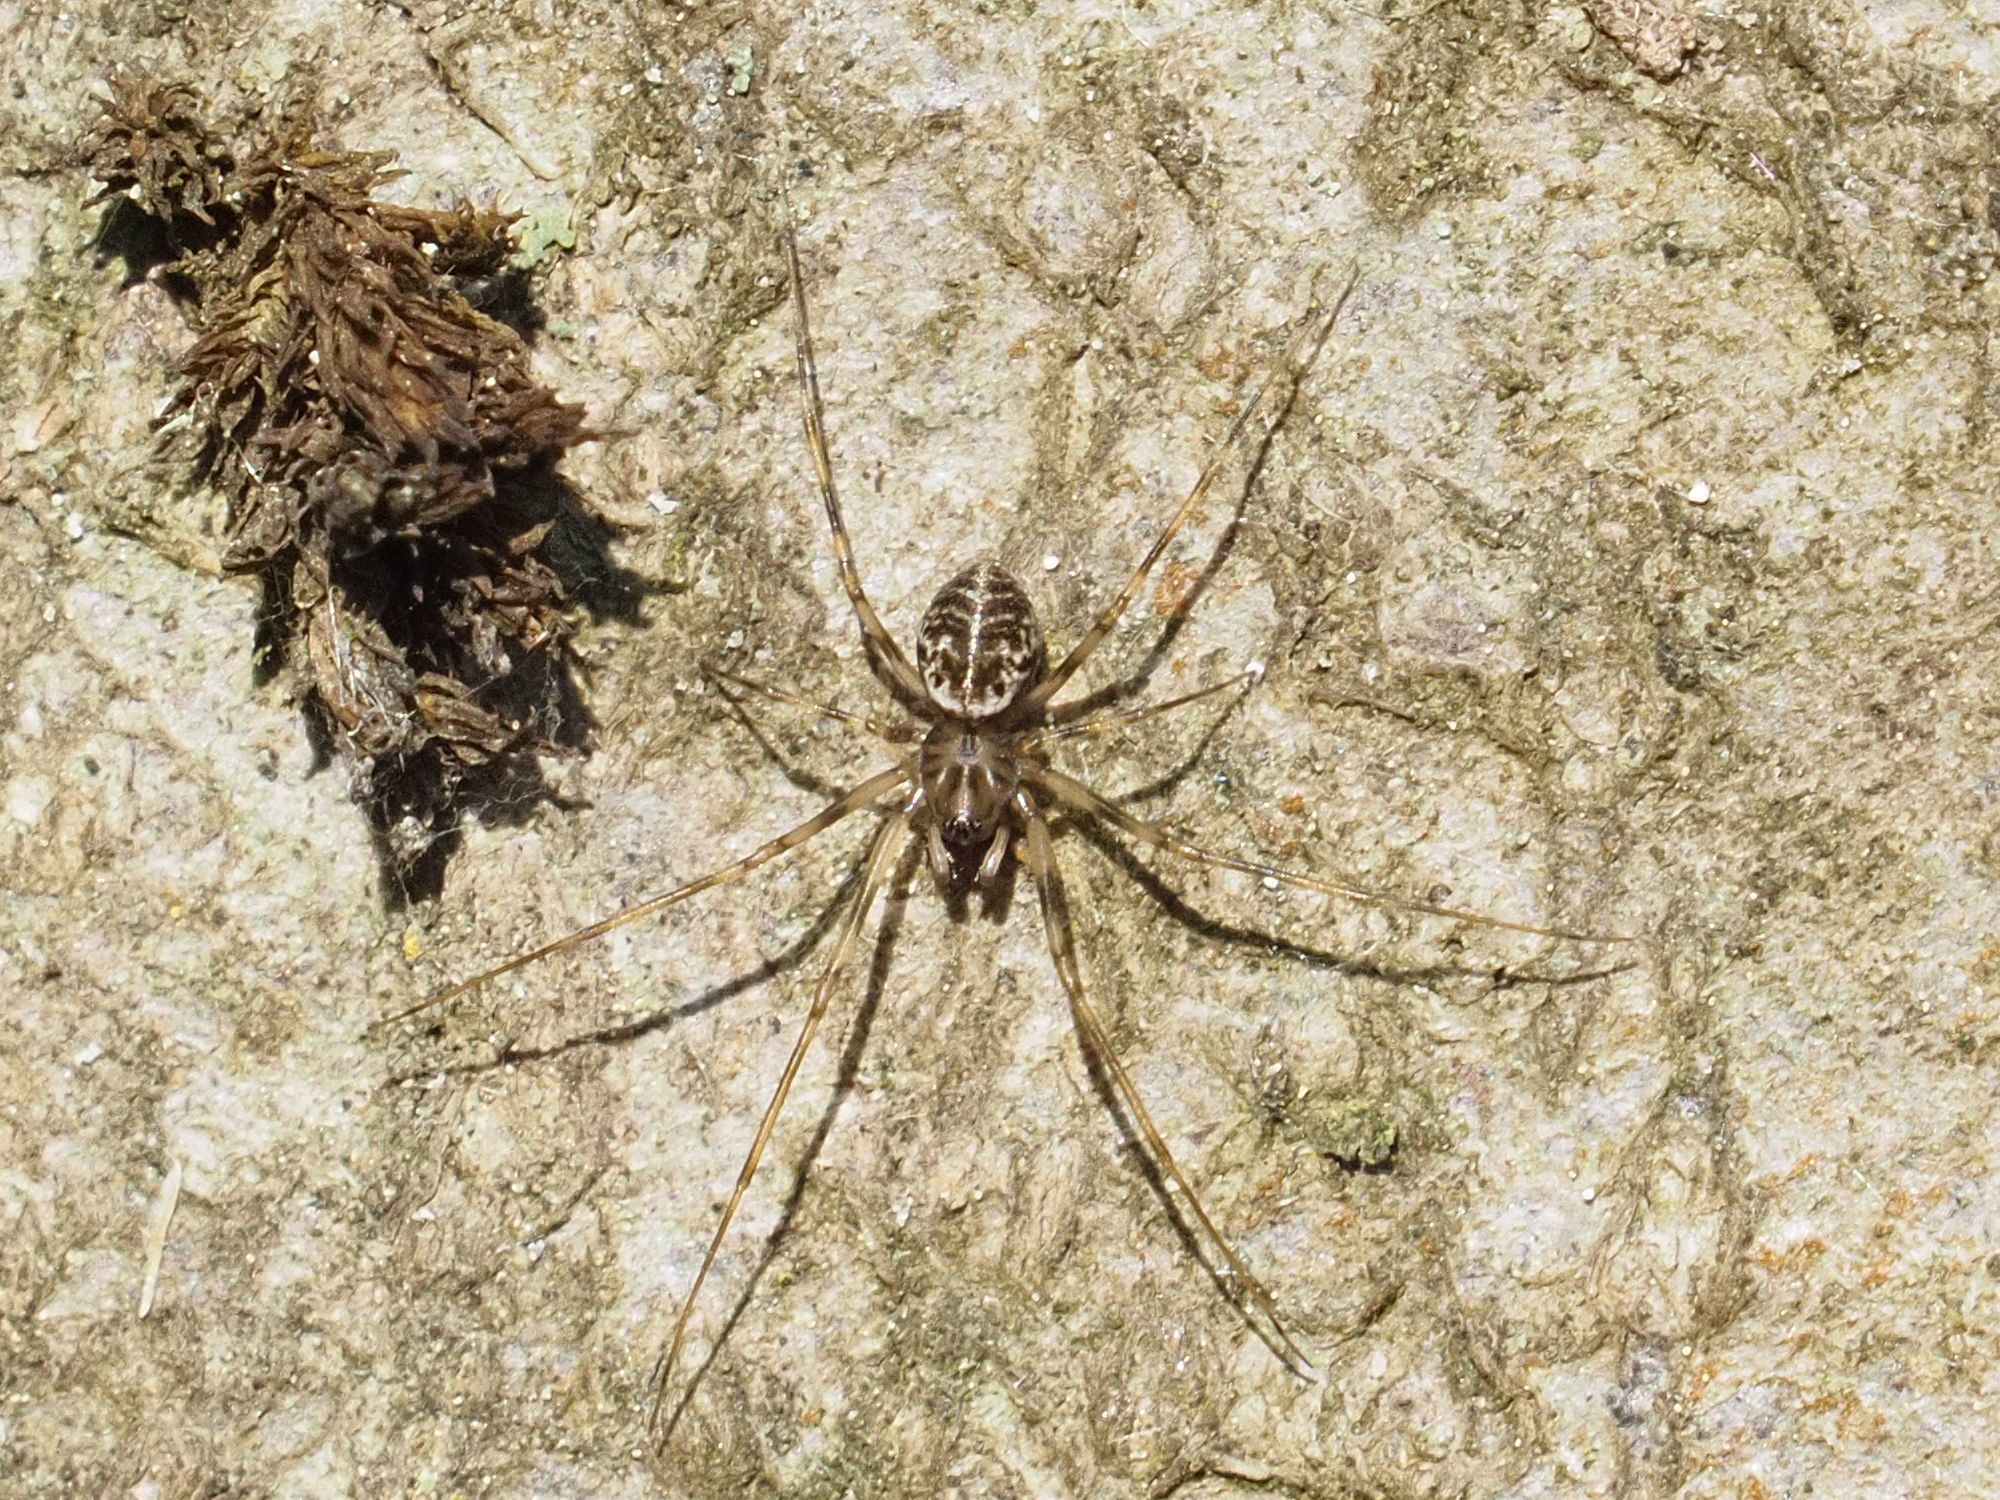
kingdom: Animalia
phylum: Arthropoda
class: Arachnida
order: Araneae
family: Linyphiidae
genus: Drapetisca
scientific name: Drapetisca socialis
